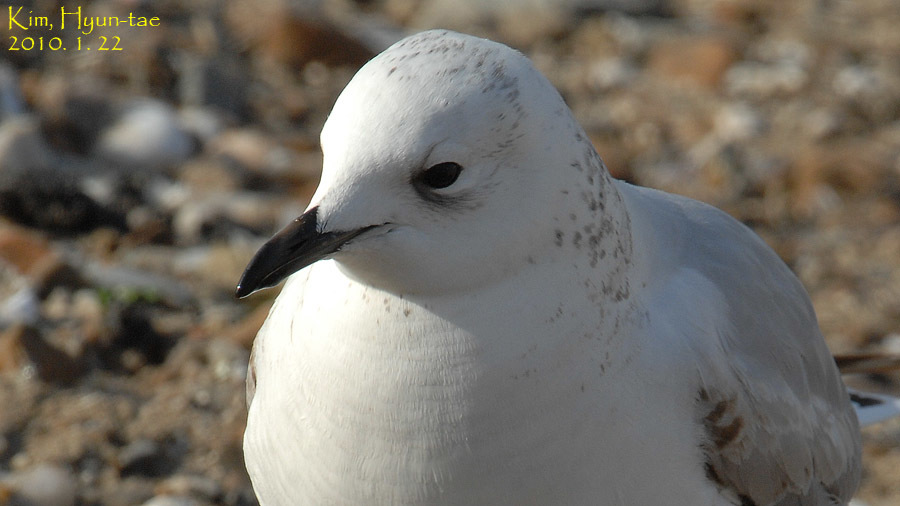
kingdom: Animalia
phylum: Chordata
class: Aves
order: Charadriiformes
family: Laridae
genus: Ichthyaetus
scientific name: Ichthyaetus relictus
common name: Relict gull
